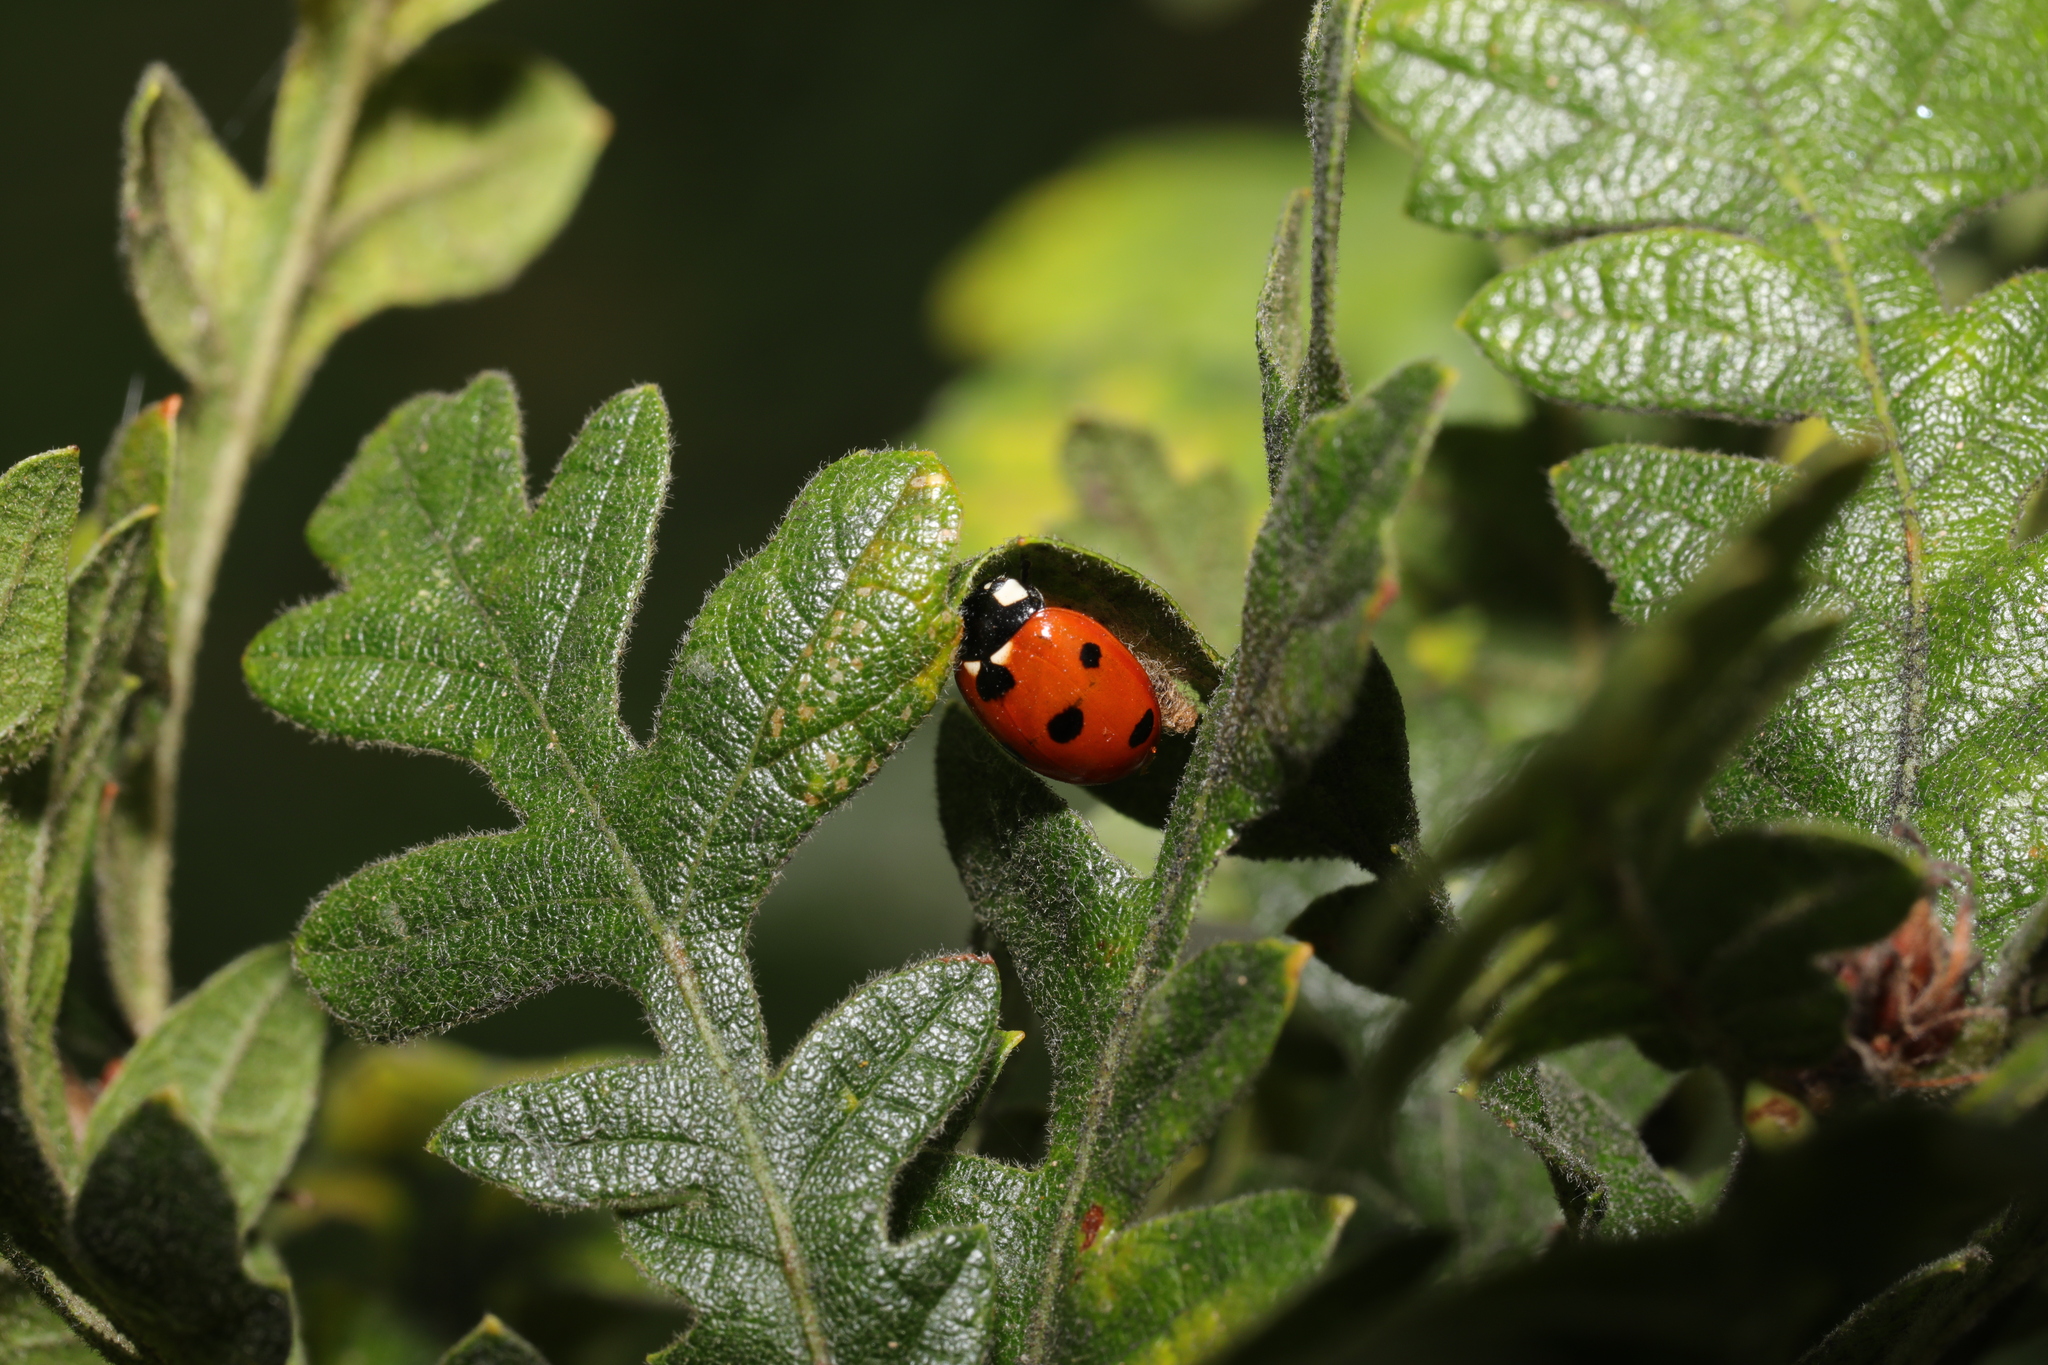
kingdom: Animalia
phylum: Arthropoda
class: Insecta
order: Coleoptera
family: Coccinellidae
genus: Coccinella
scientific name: Coccinella septempunctata
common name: Sevenspotted lady beetle
